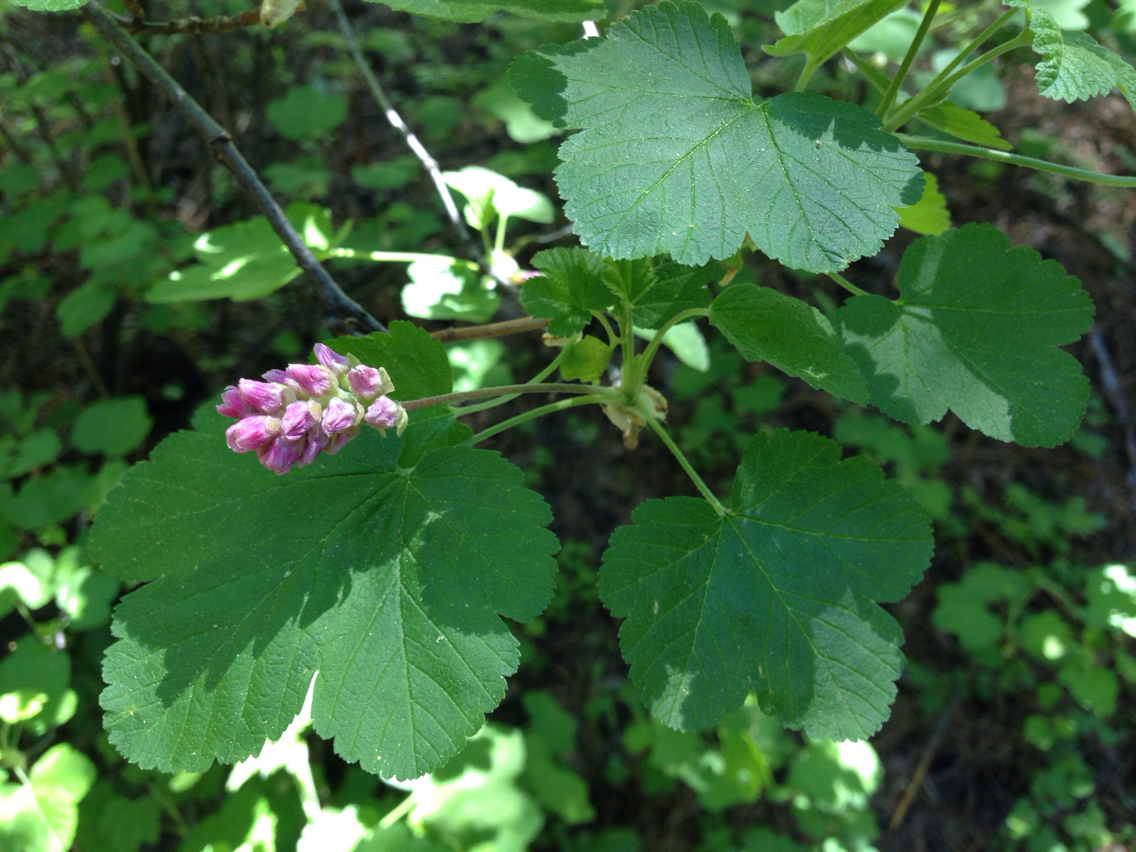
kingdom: Plantae
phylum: Tracheophyta
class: Magnoliopsida
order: Saxifragales
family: Grossulariaceae
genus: Ribes
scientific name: Ribes nevadense
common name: Mountain pink currant
